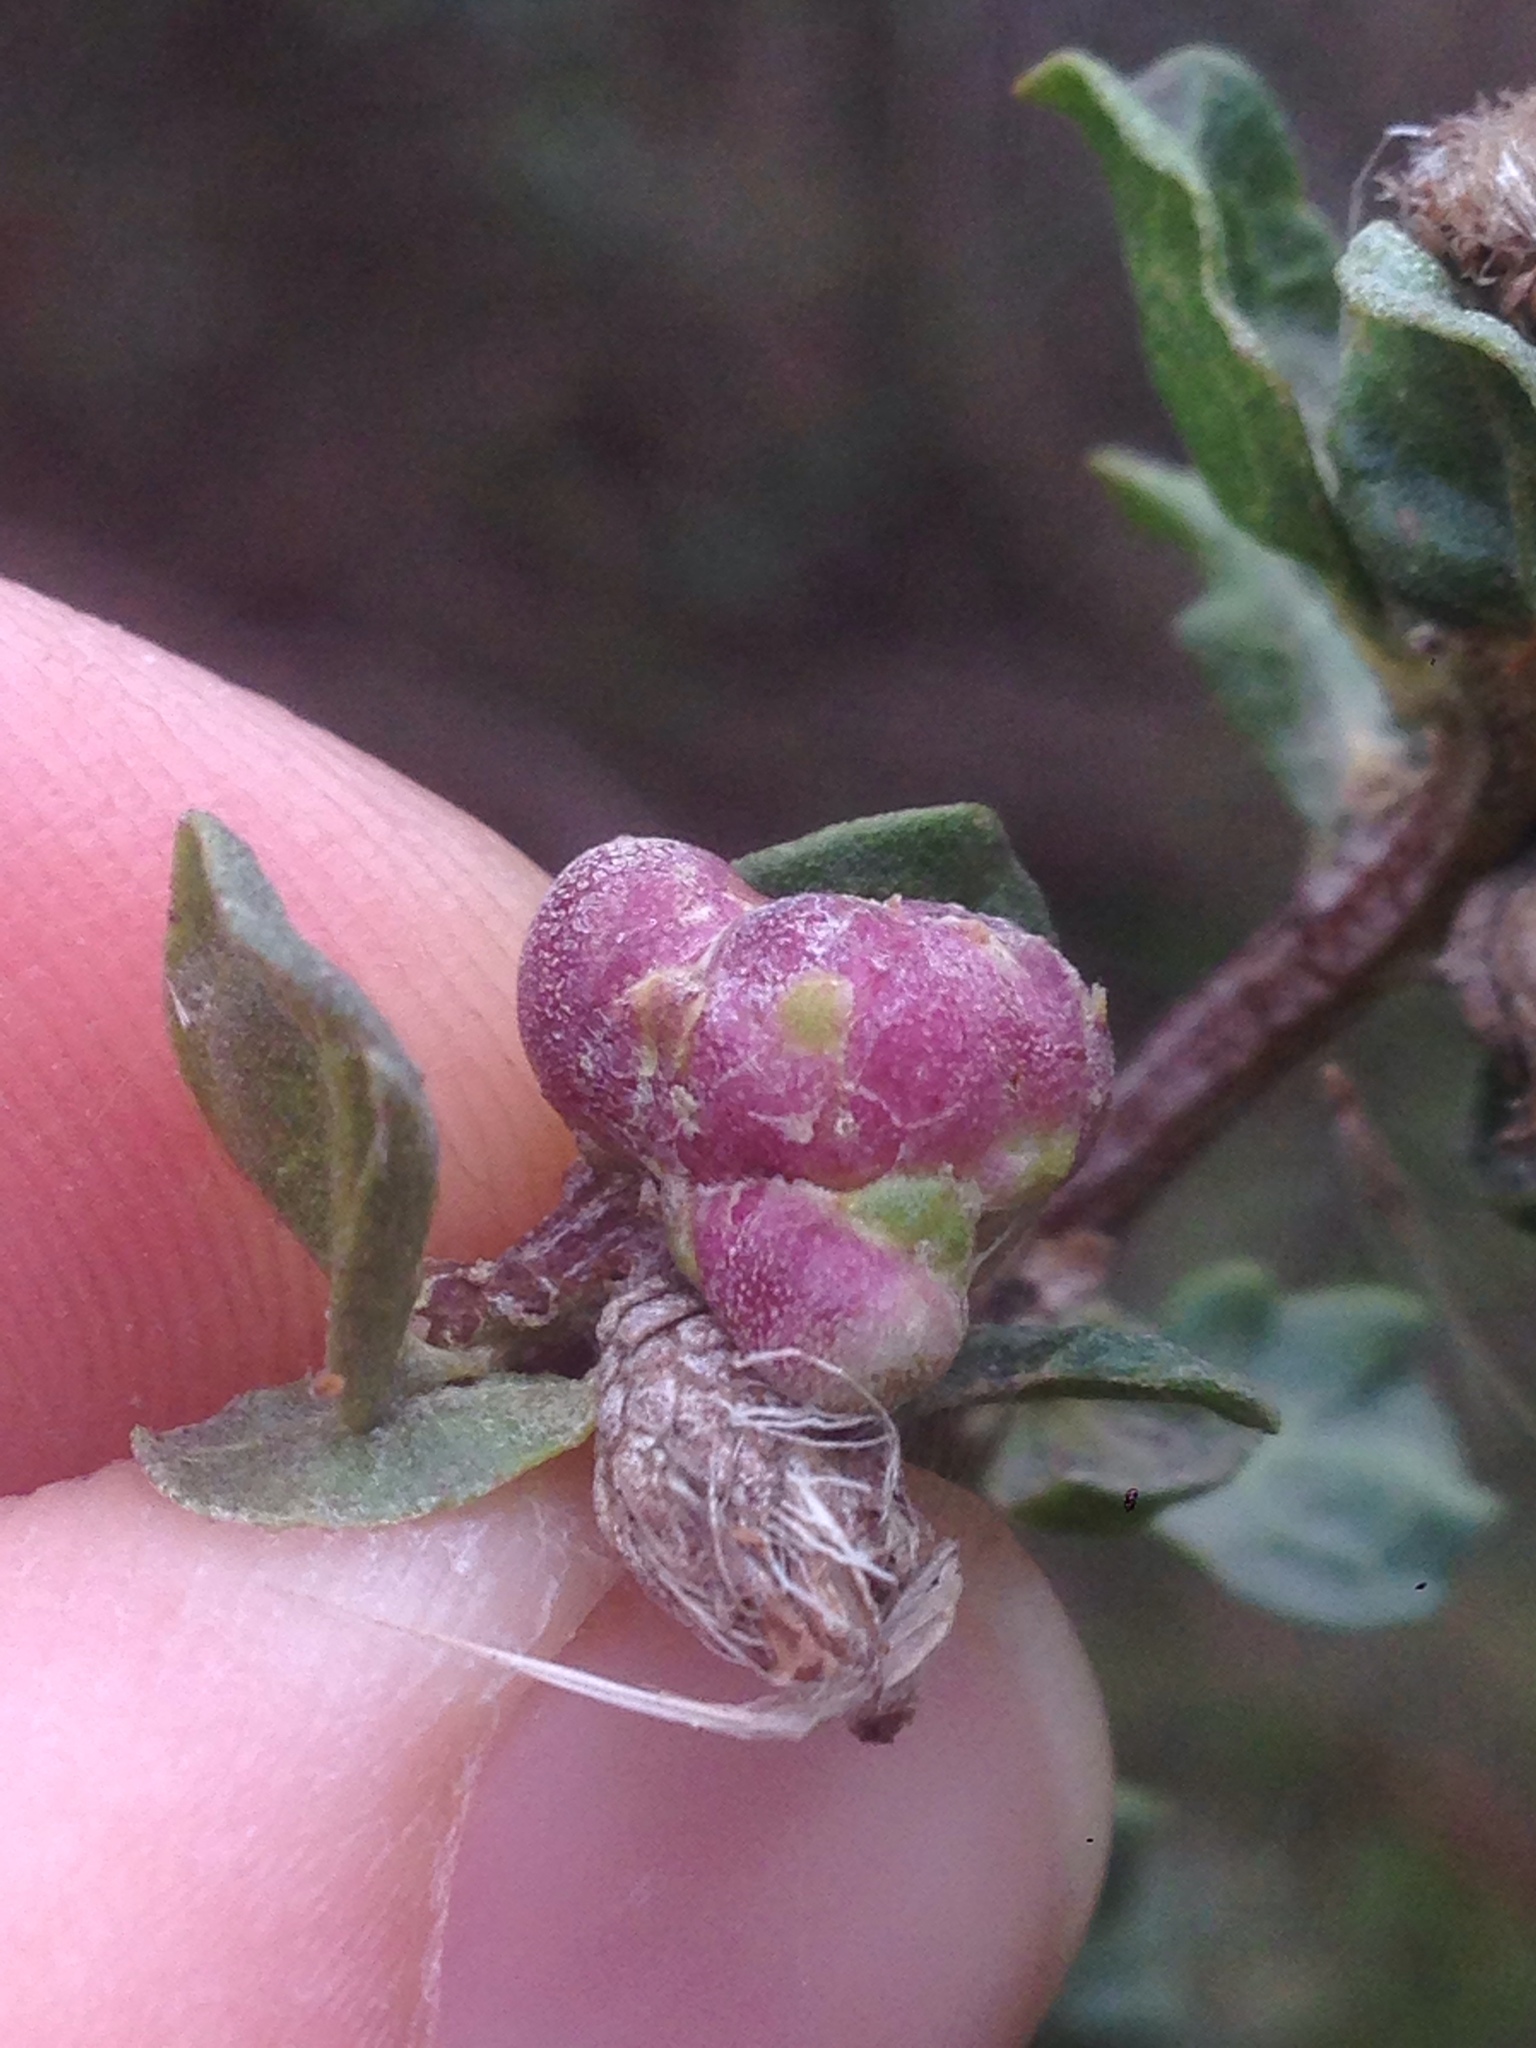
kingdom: Animalia
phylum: Arthropoda
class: Insecta
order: Diptera
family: Cecidomyiidae
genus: Rhopalomyia
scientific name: Rhopalomyia californica
